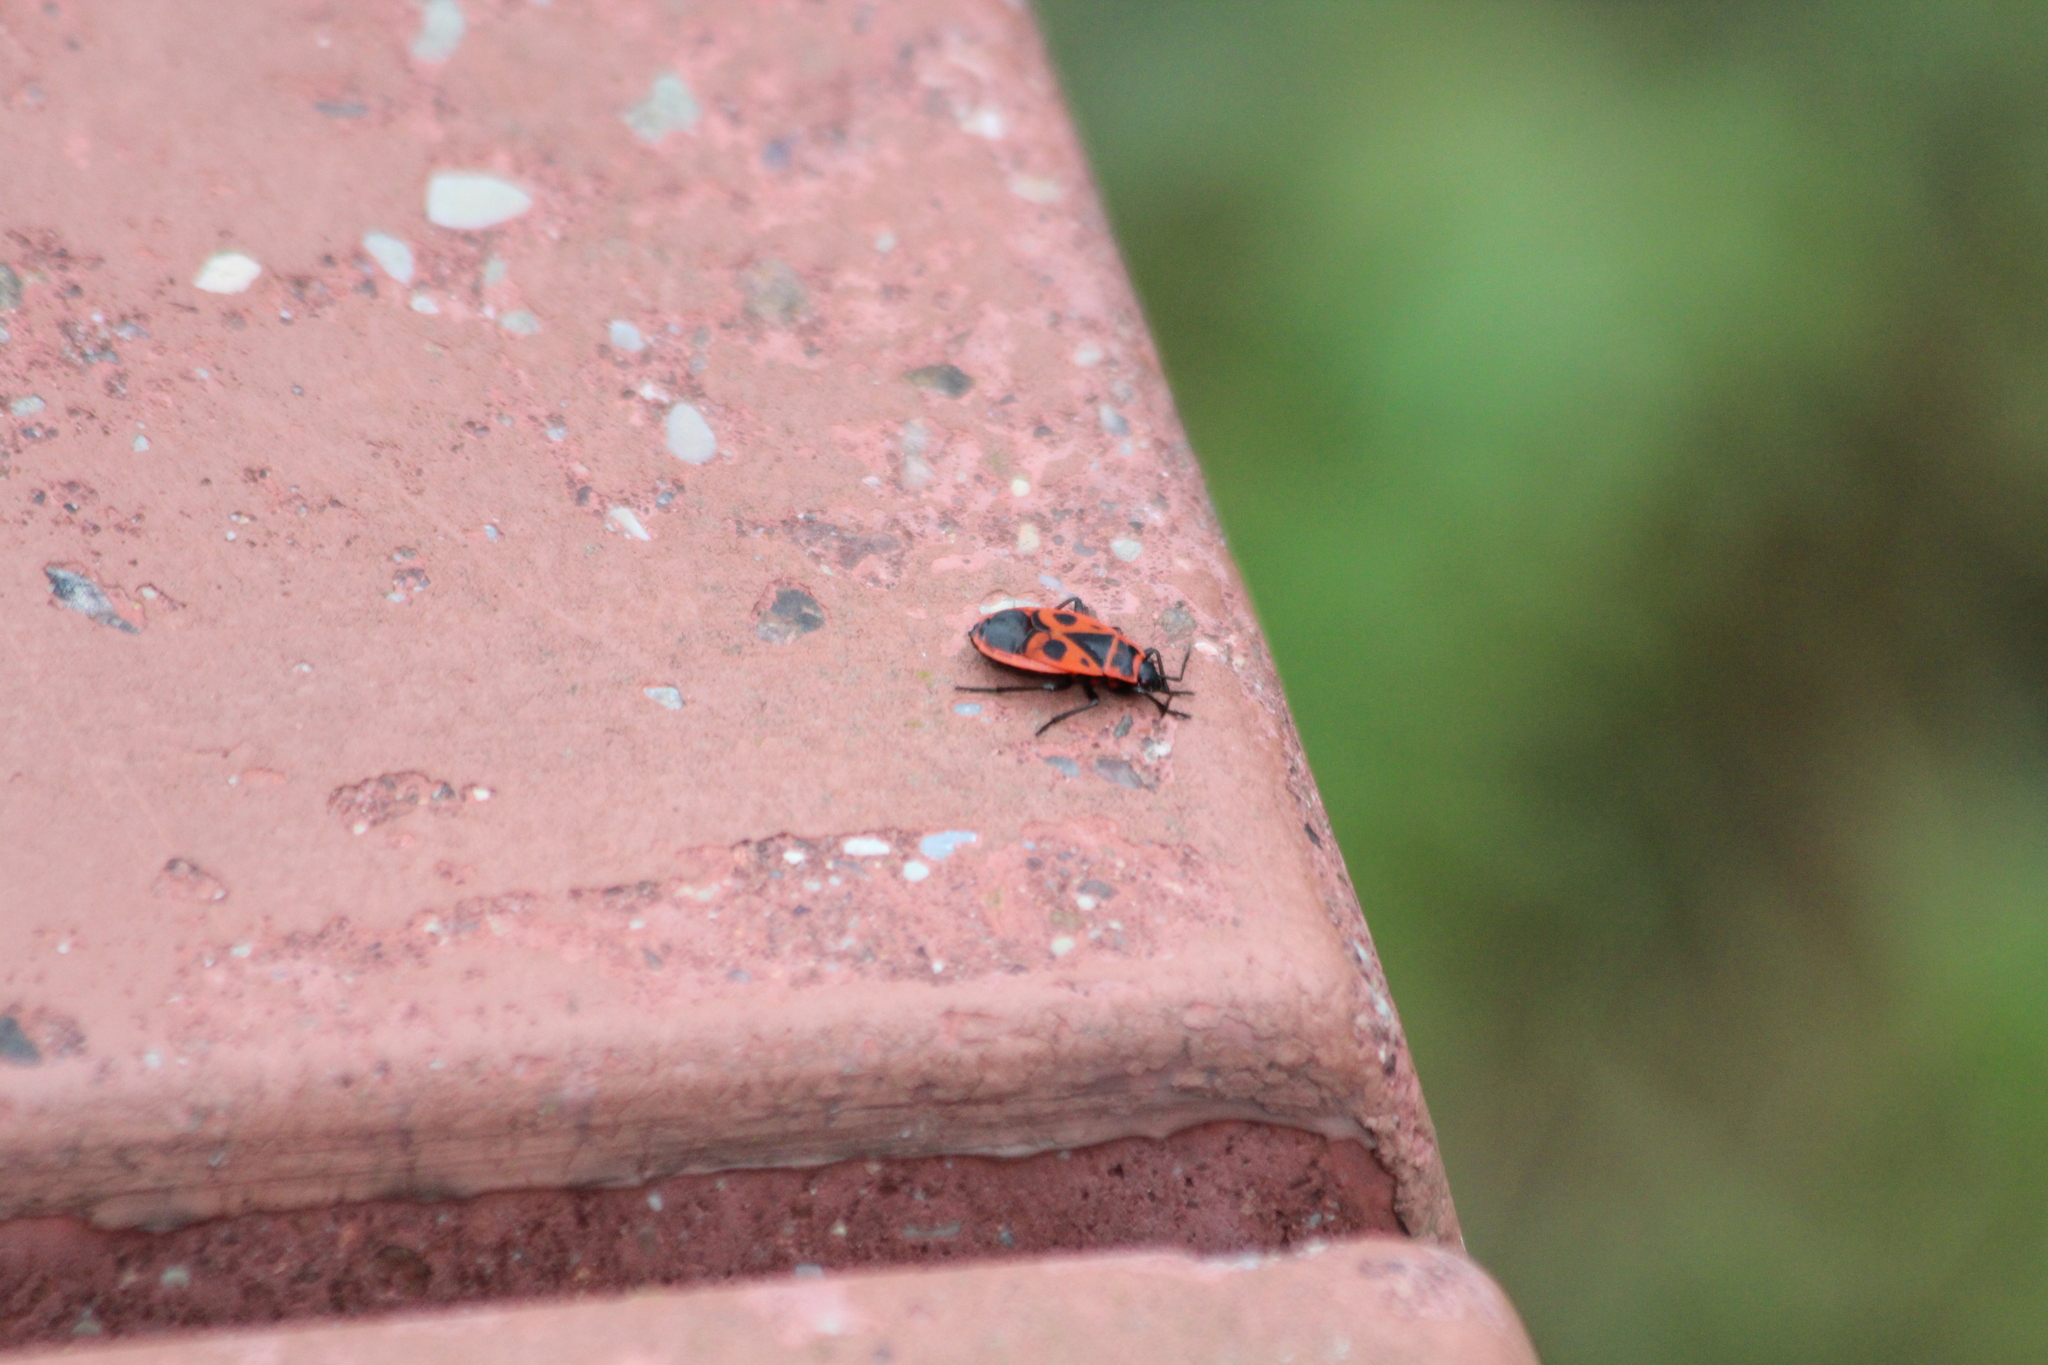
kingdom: Animalia
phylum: Arthropoda
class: Insecta
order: Hemiptera
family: Pyrrhocoridae
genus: Pyrrhocoris
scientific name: Pyrrhocoris apterus
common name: Firebug
